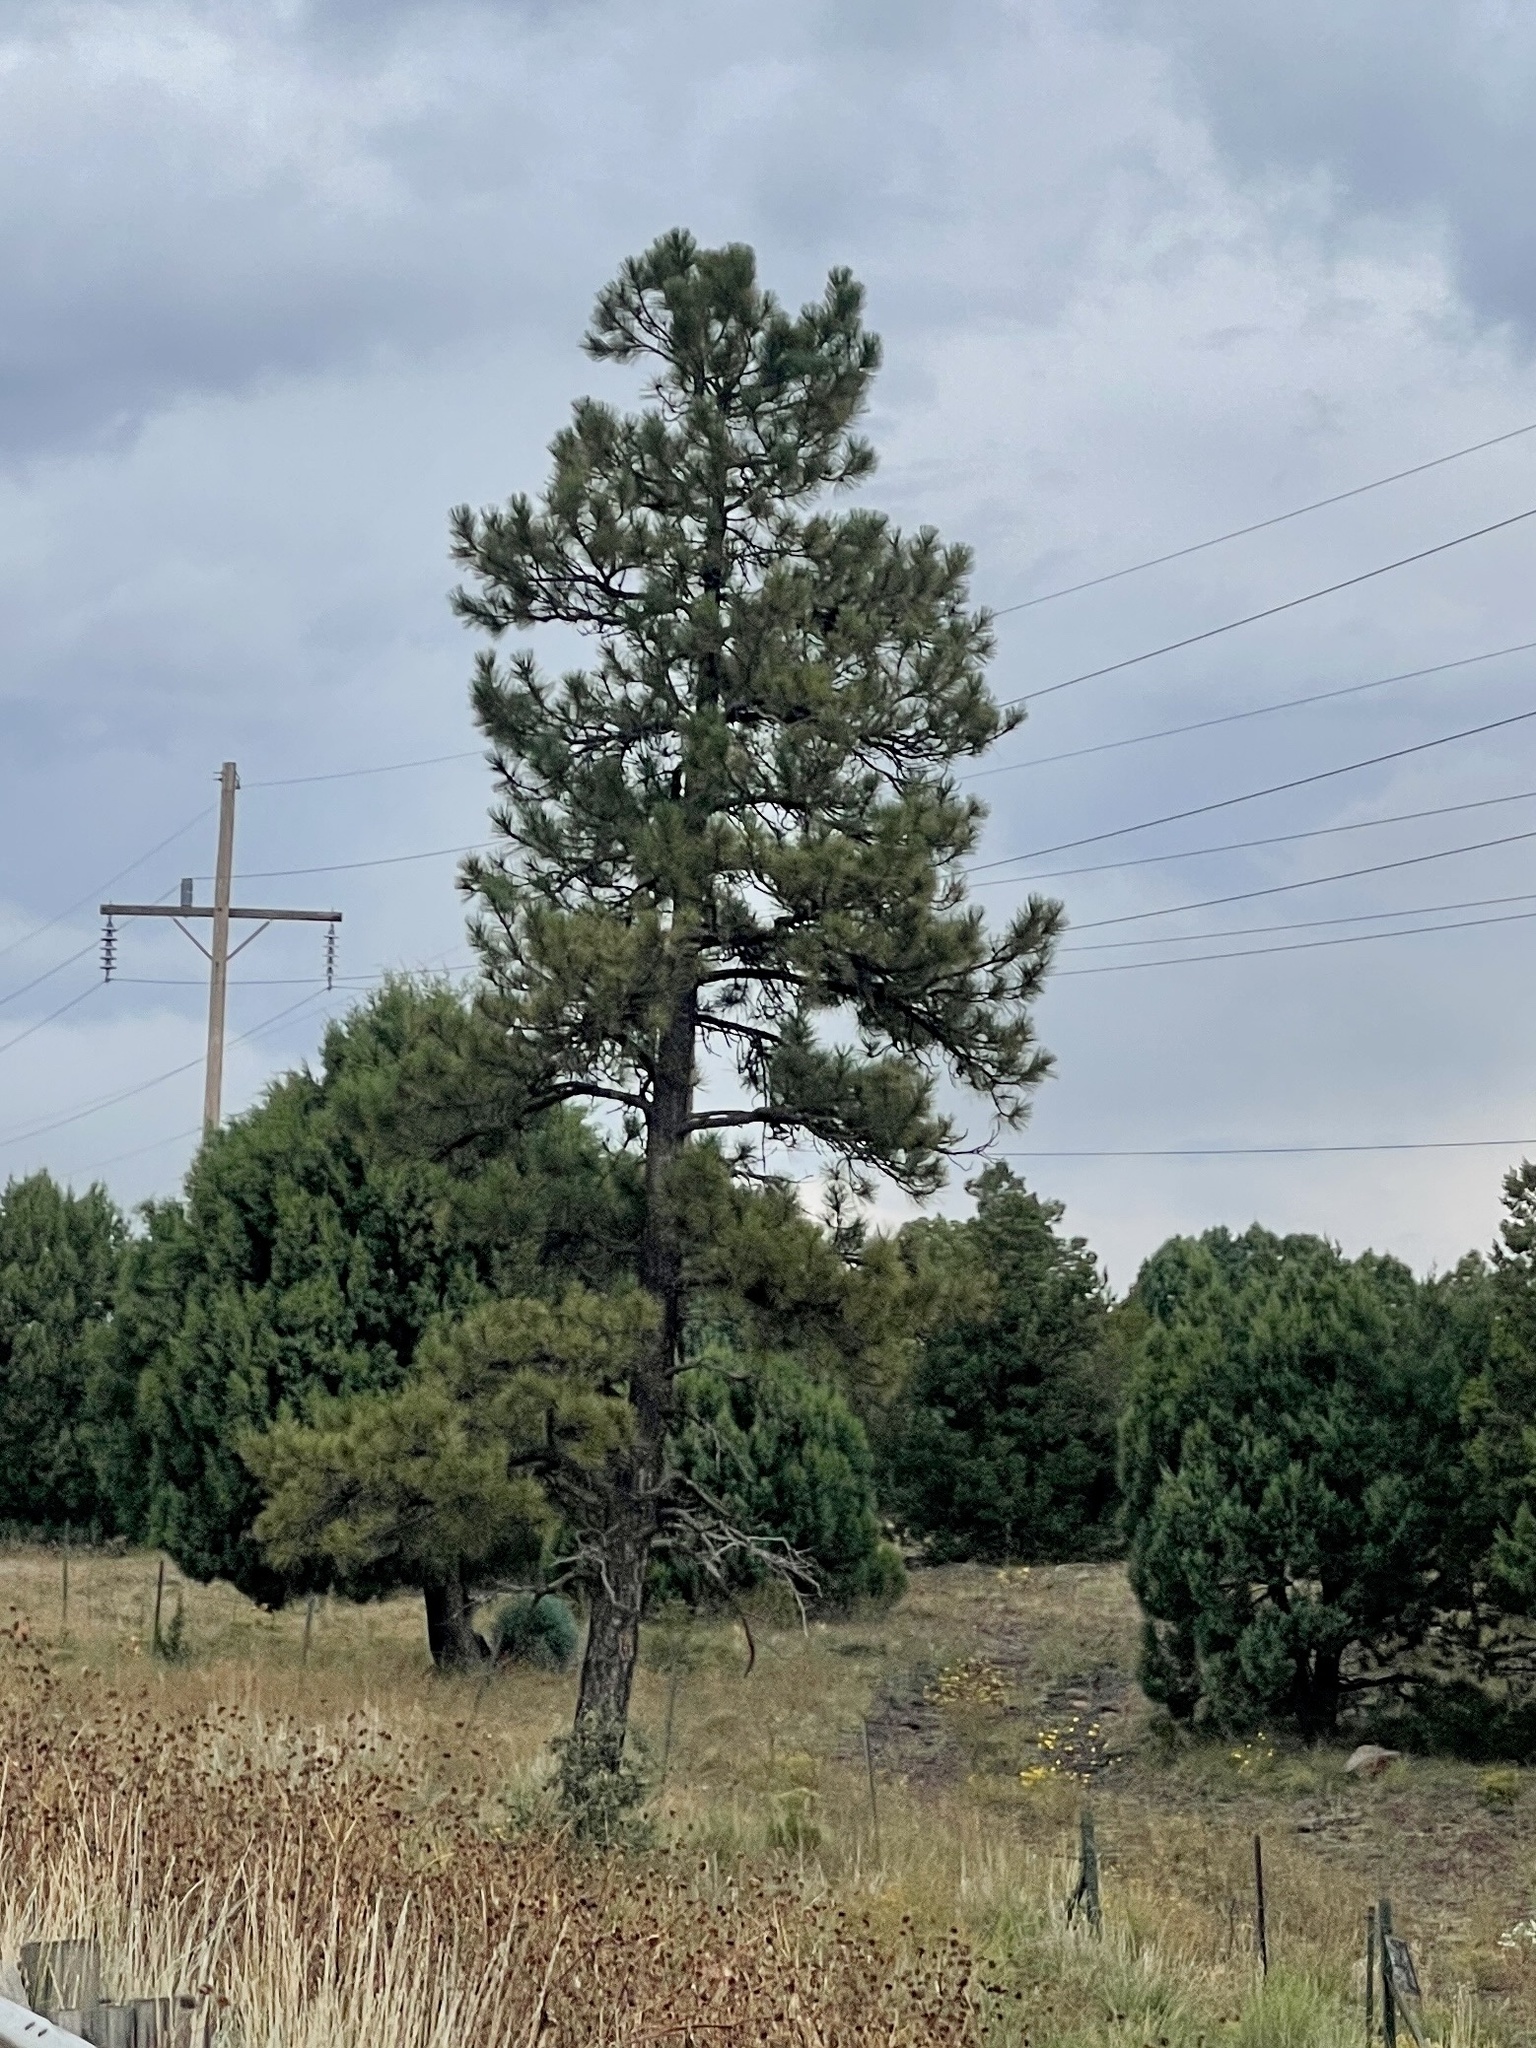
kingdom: Plantae
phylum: Tracheophyta
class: Pinopsida
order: Pinales
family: Pinaceae
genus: Pinus
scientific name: Pinus ponderosa
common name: Western yellow-pine
